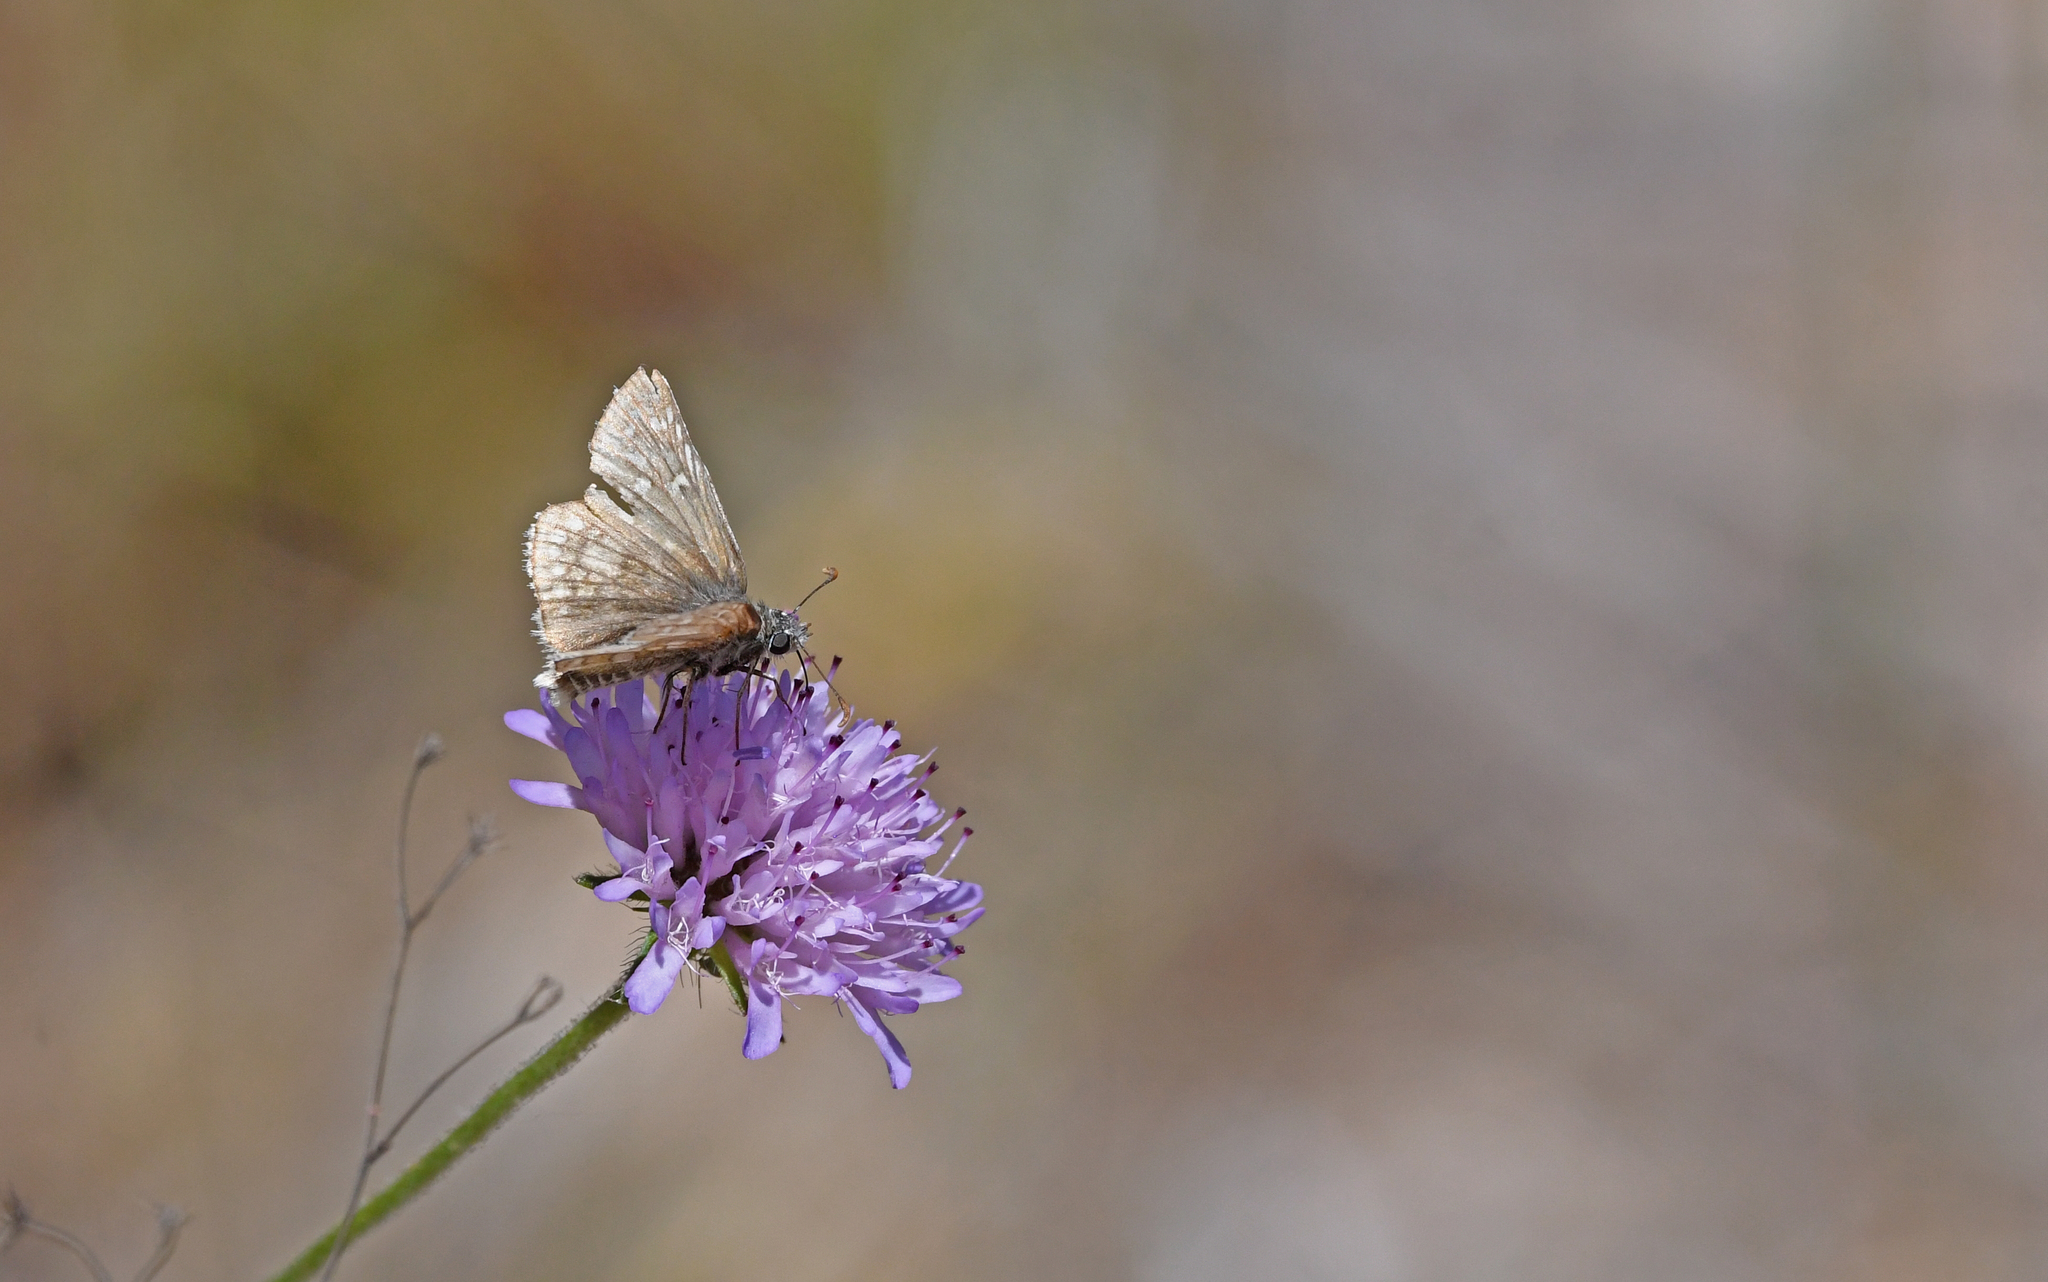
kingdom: Animalia
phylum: Arthropoda
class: Insecta
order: Lepidoptera
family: Hesperiidae
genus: Pyrgus
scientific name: Pyrgus sidae
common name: Yellow-banded skipper
